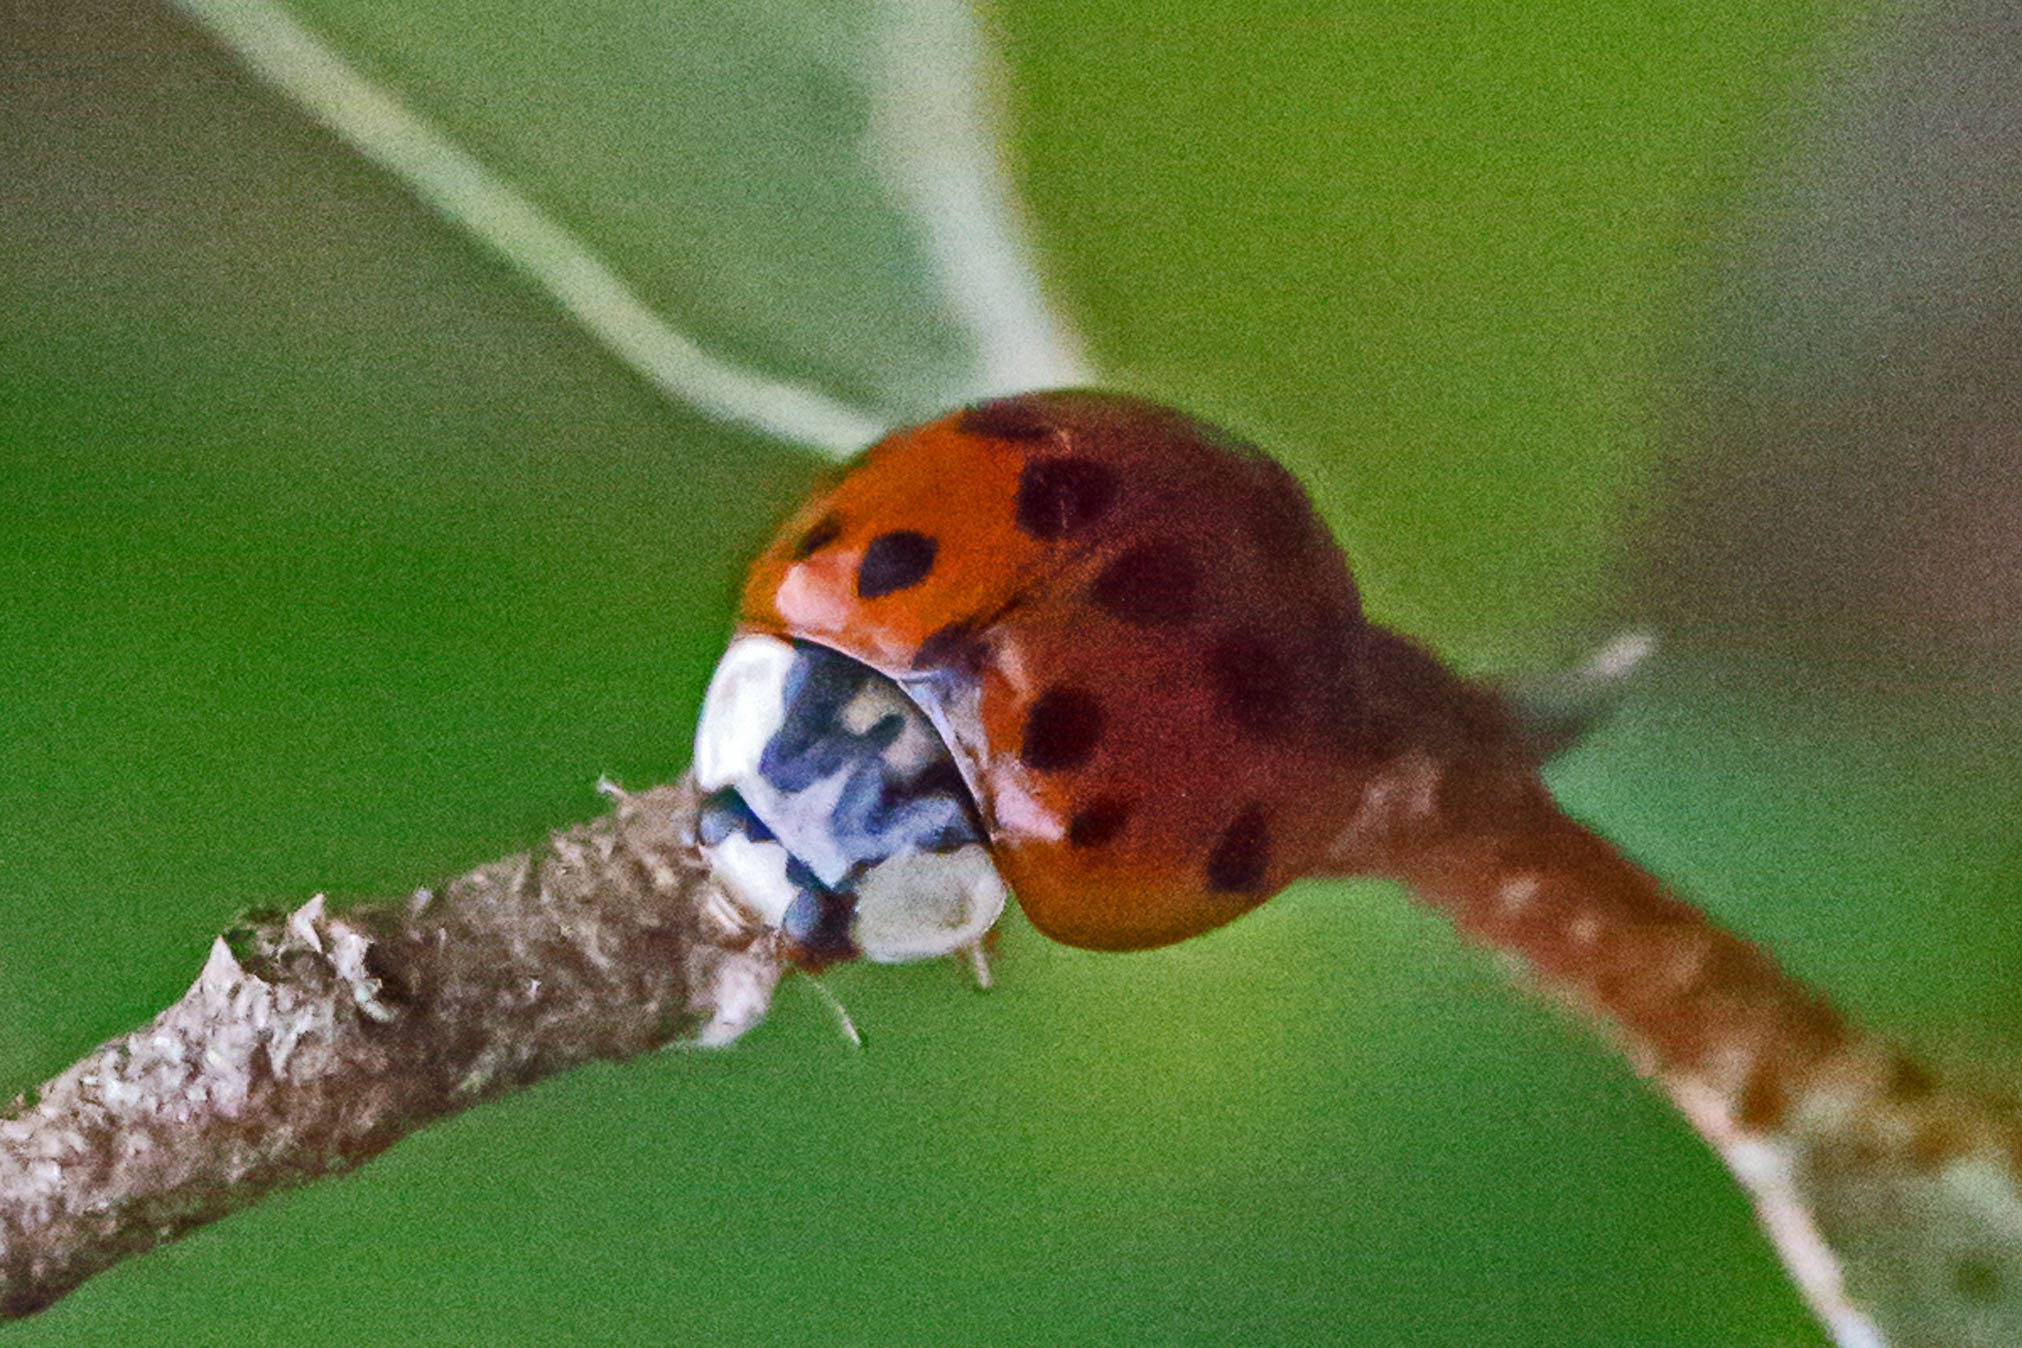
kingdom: Animalia
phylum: Arthropoda
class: Insecta
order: Coleoptera
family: Coccinellidae
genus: Harmonia
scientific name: Harmonia axyridis
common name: Harlequin ladybird
